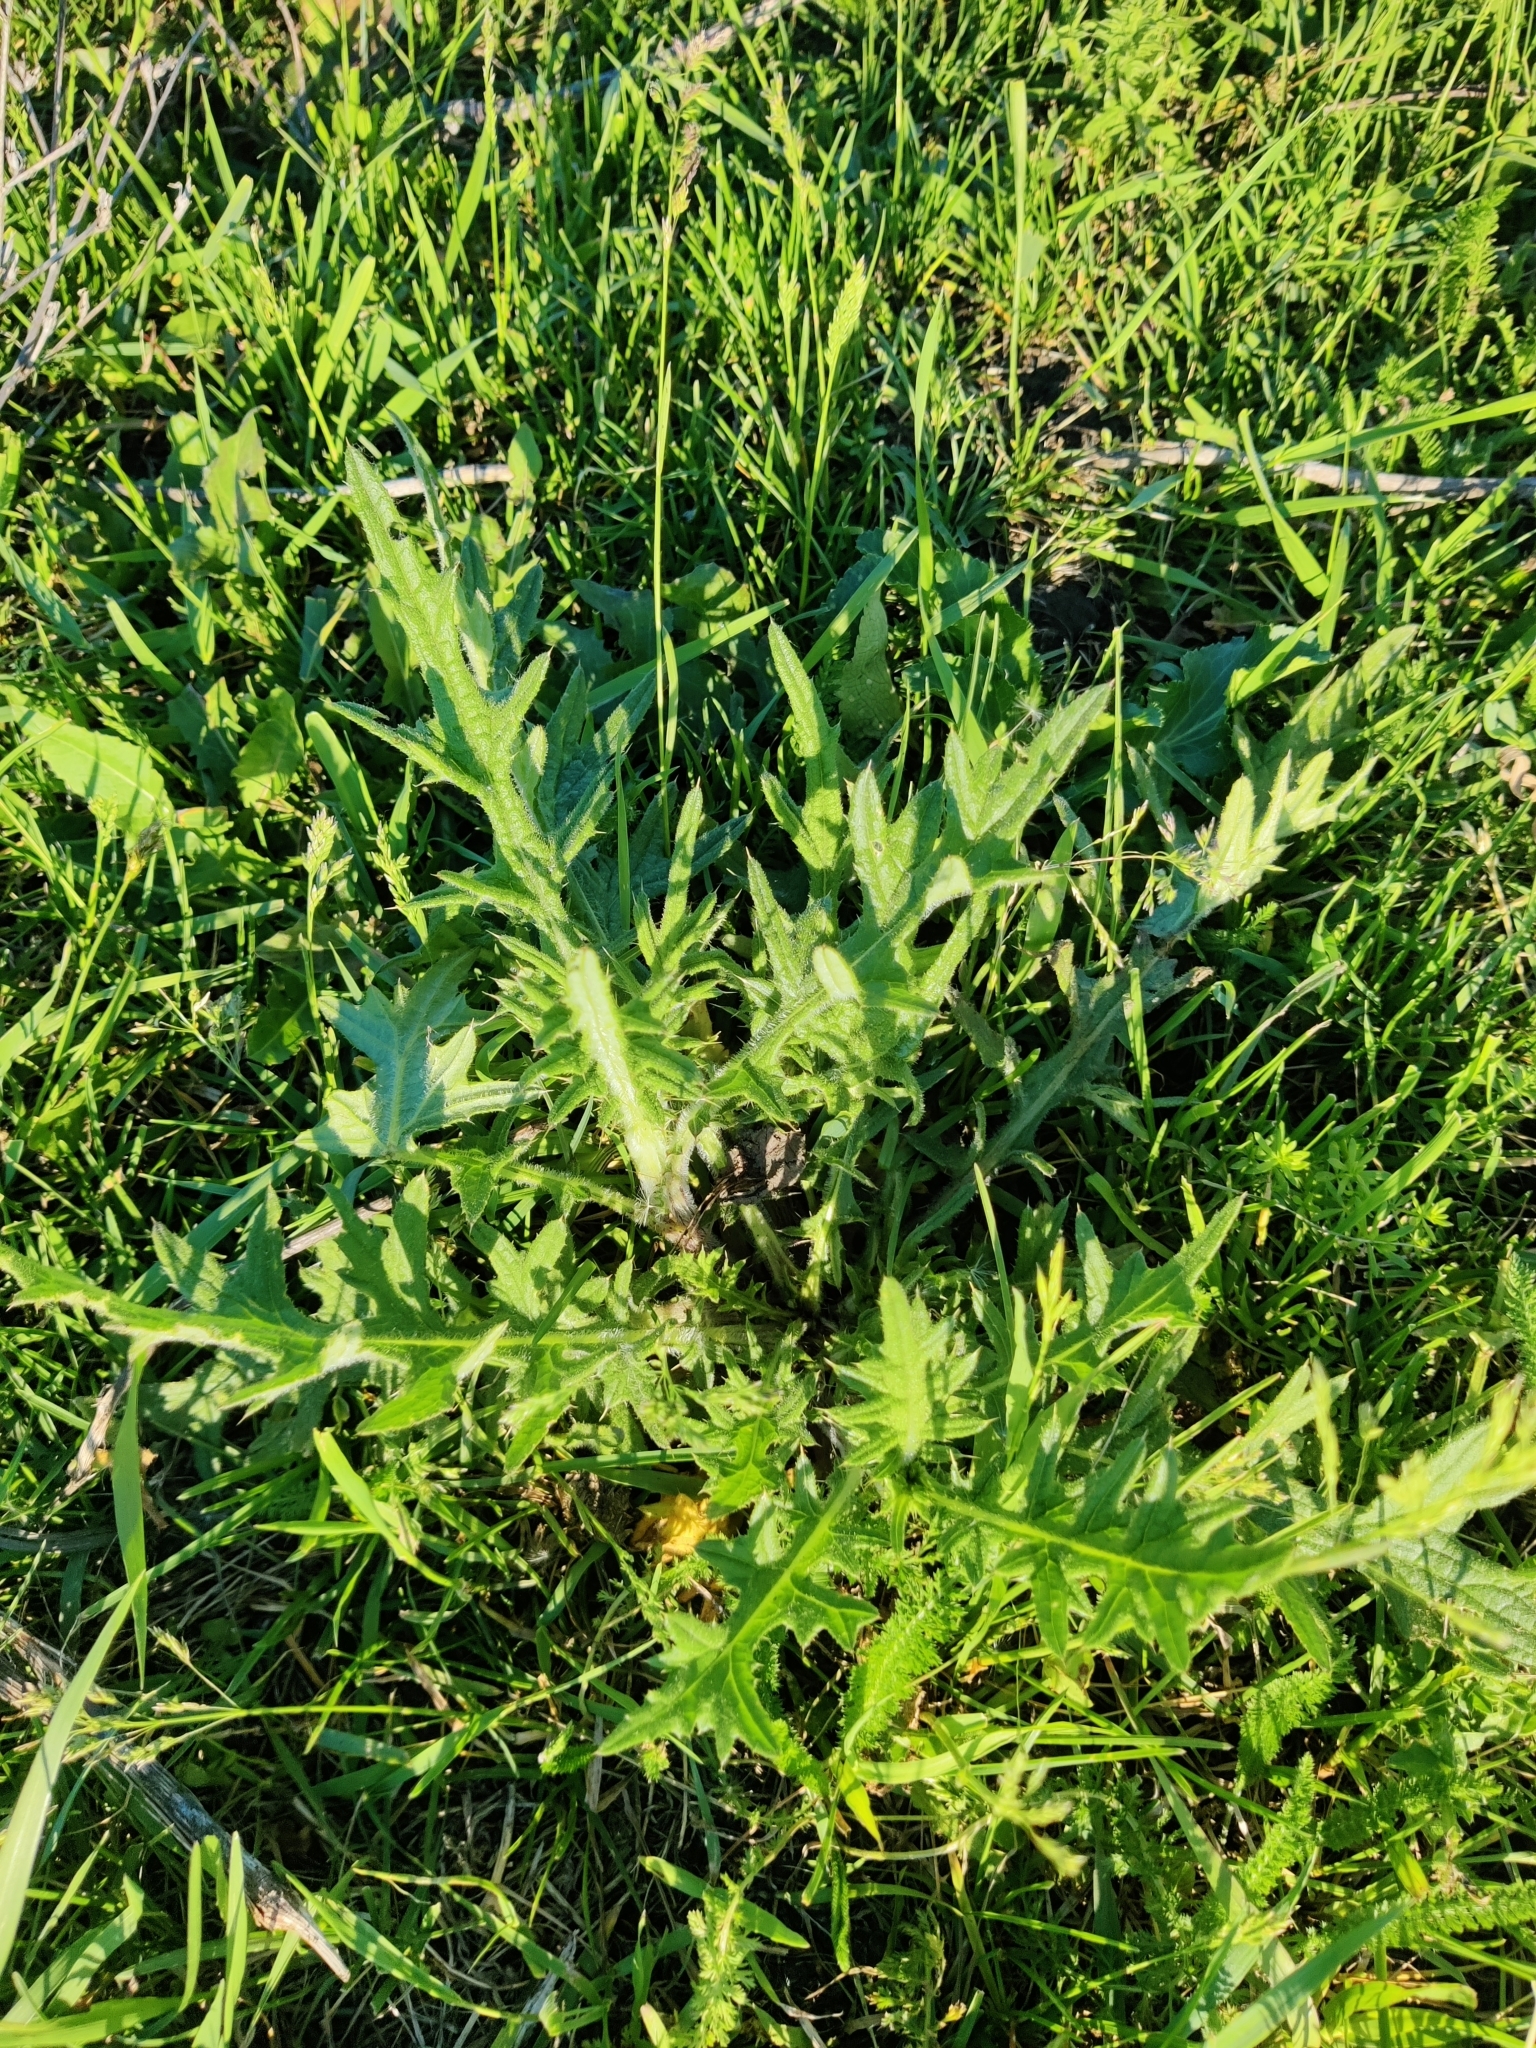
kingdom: Plantae
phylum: Tracheophyta
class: Magnoliopsida
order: Asterales
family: Asteraceae
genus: Cirsium
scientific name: Cirsium vulgare
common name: Bull thistle
